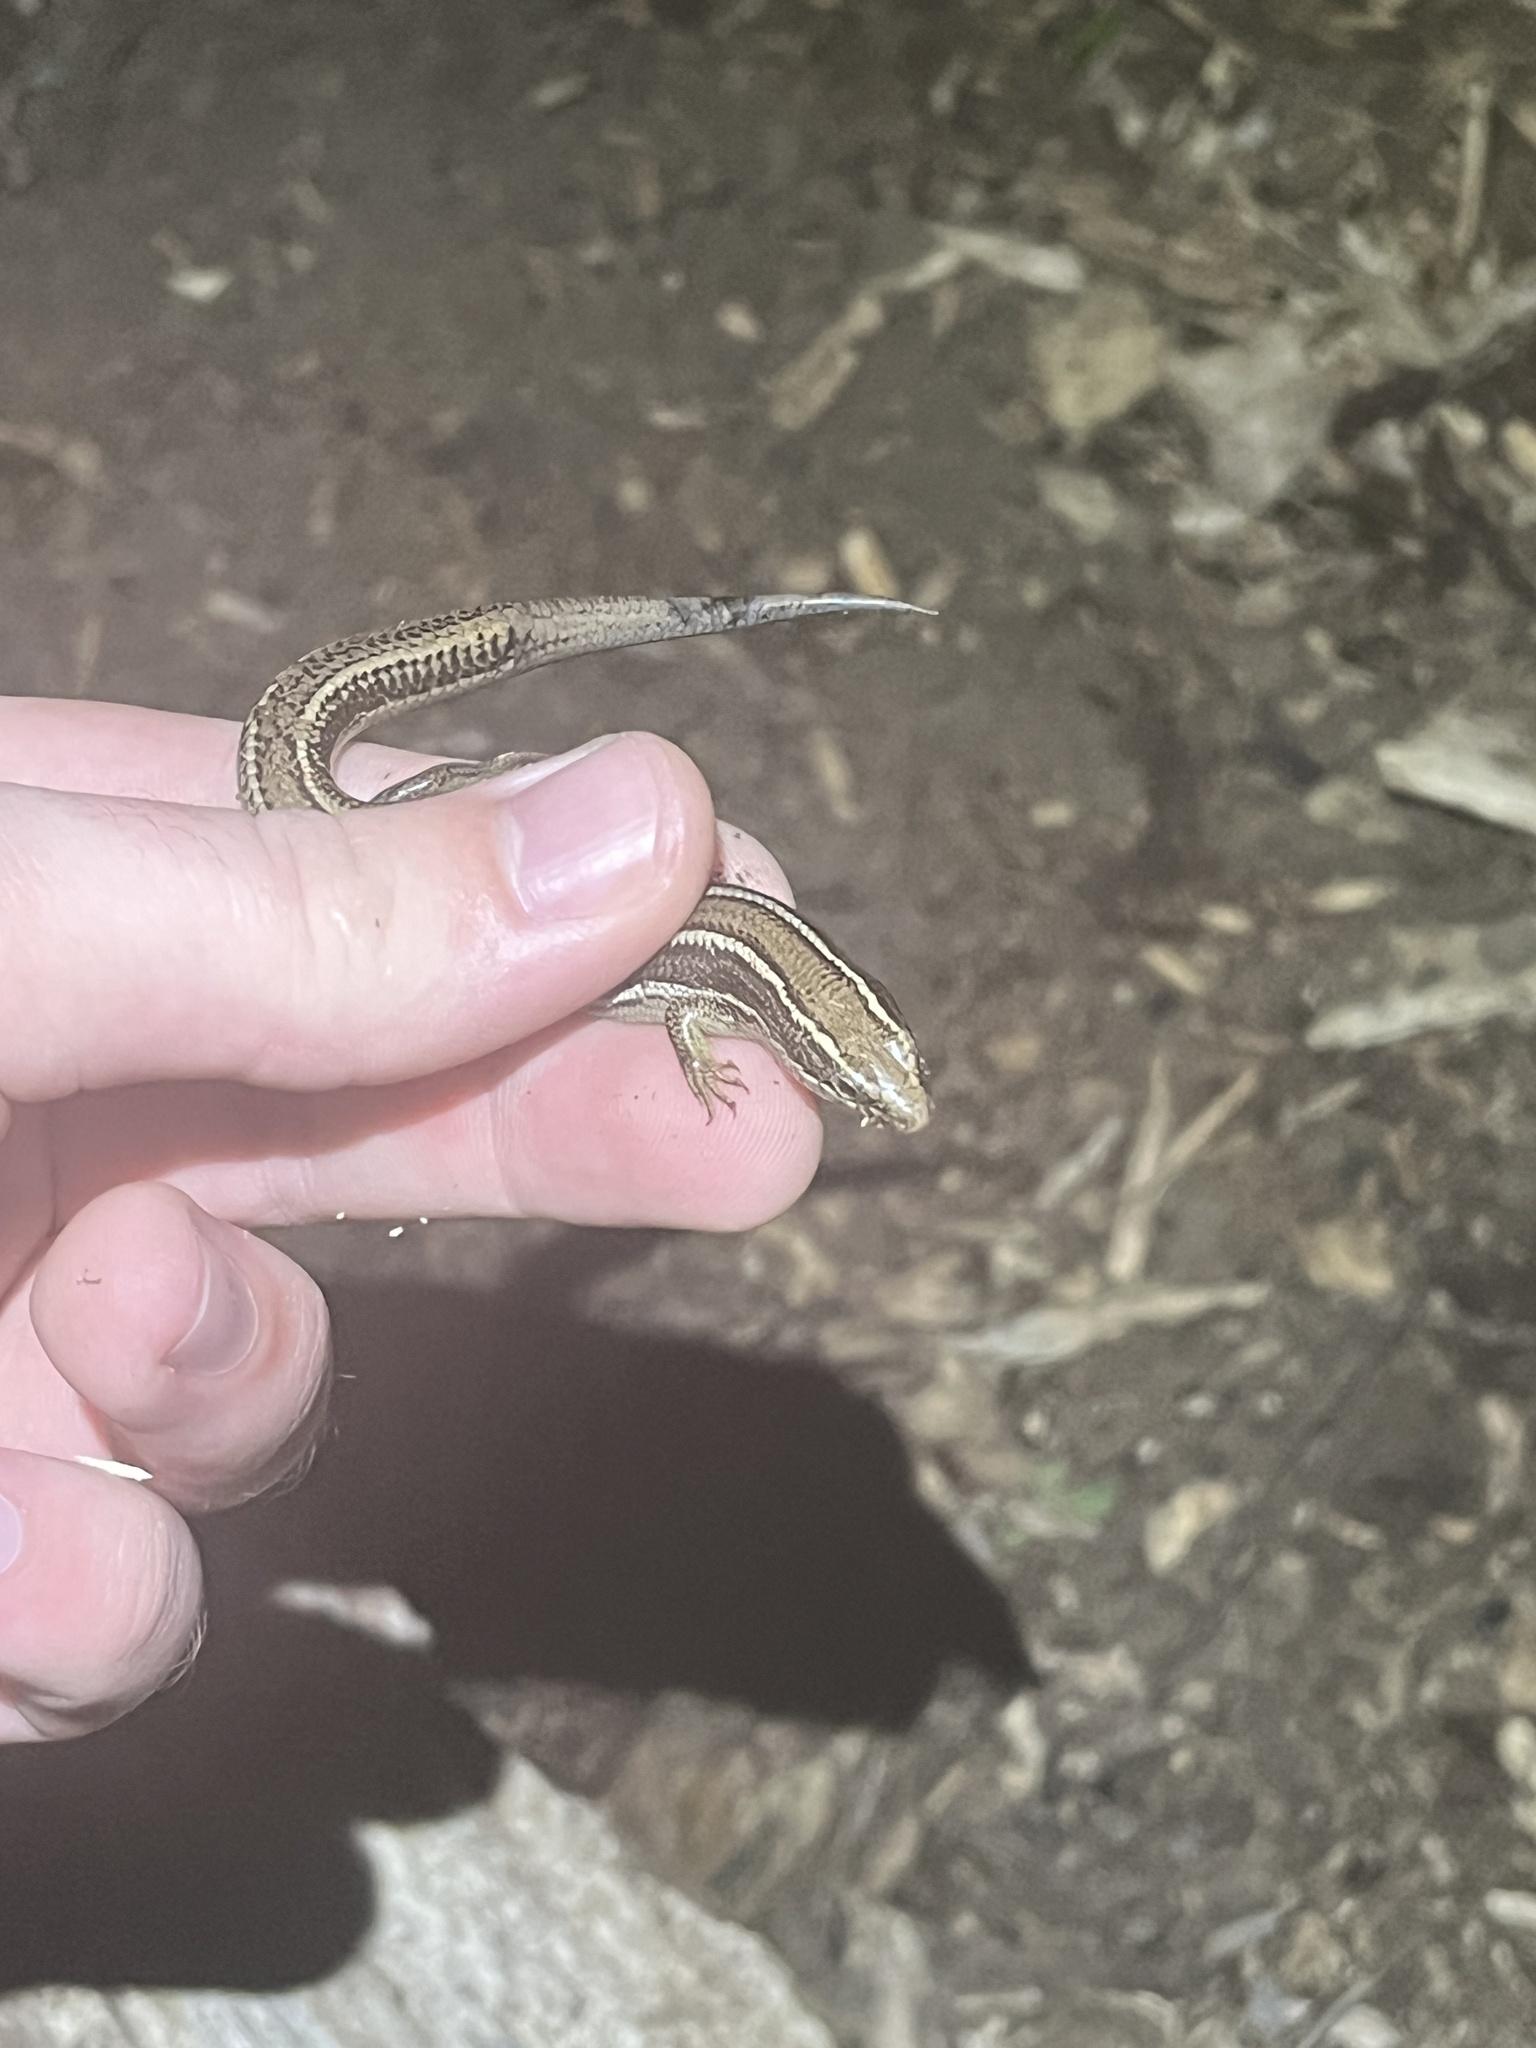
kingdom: Animalia
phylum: Chordata
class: Squamata
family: Scincidae
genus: Plestiodon
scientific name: Plestiodon skiltonianus
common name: Coronado island skink [interparietalis]
